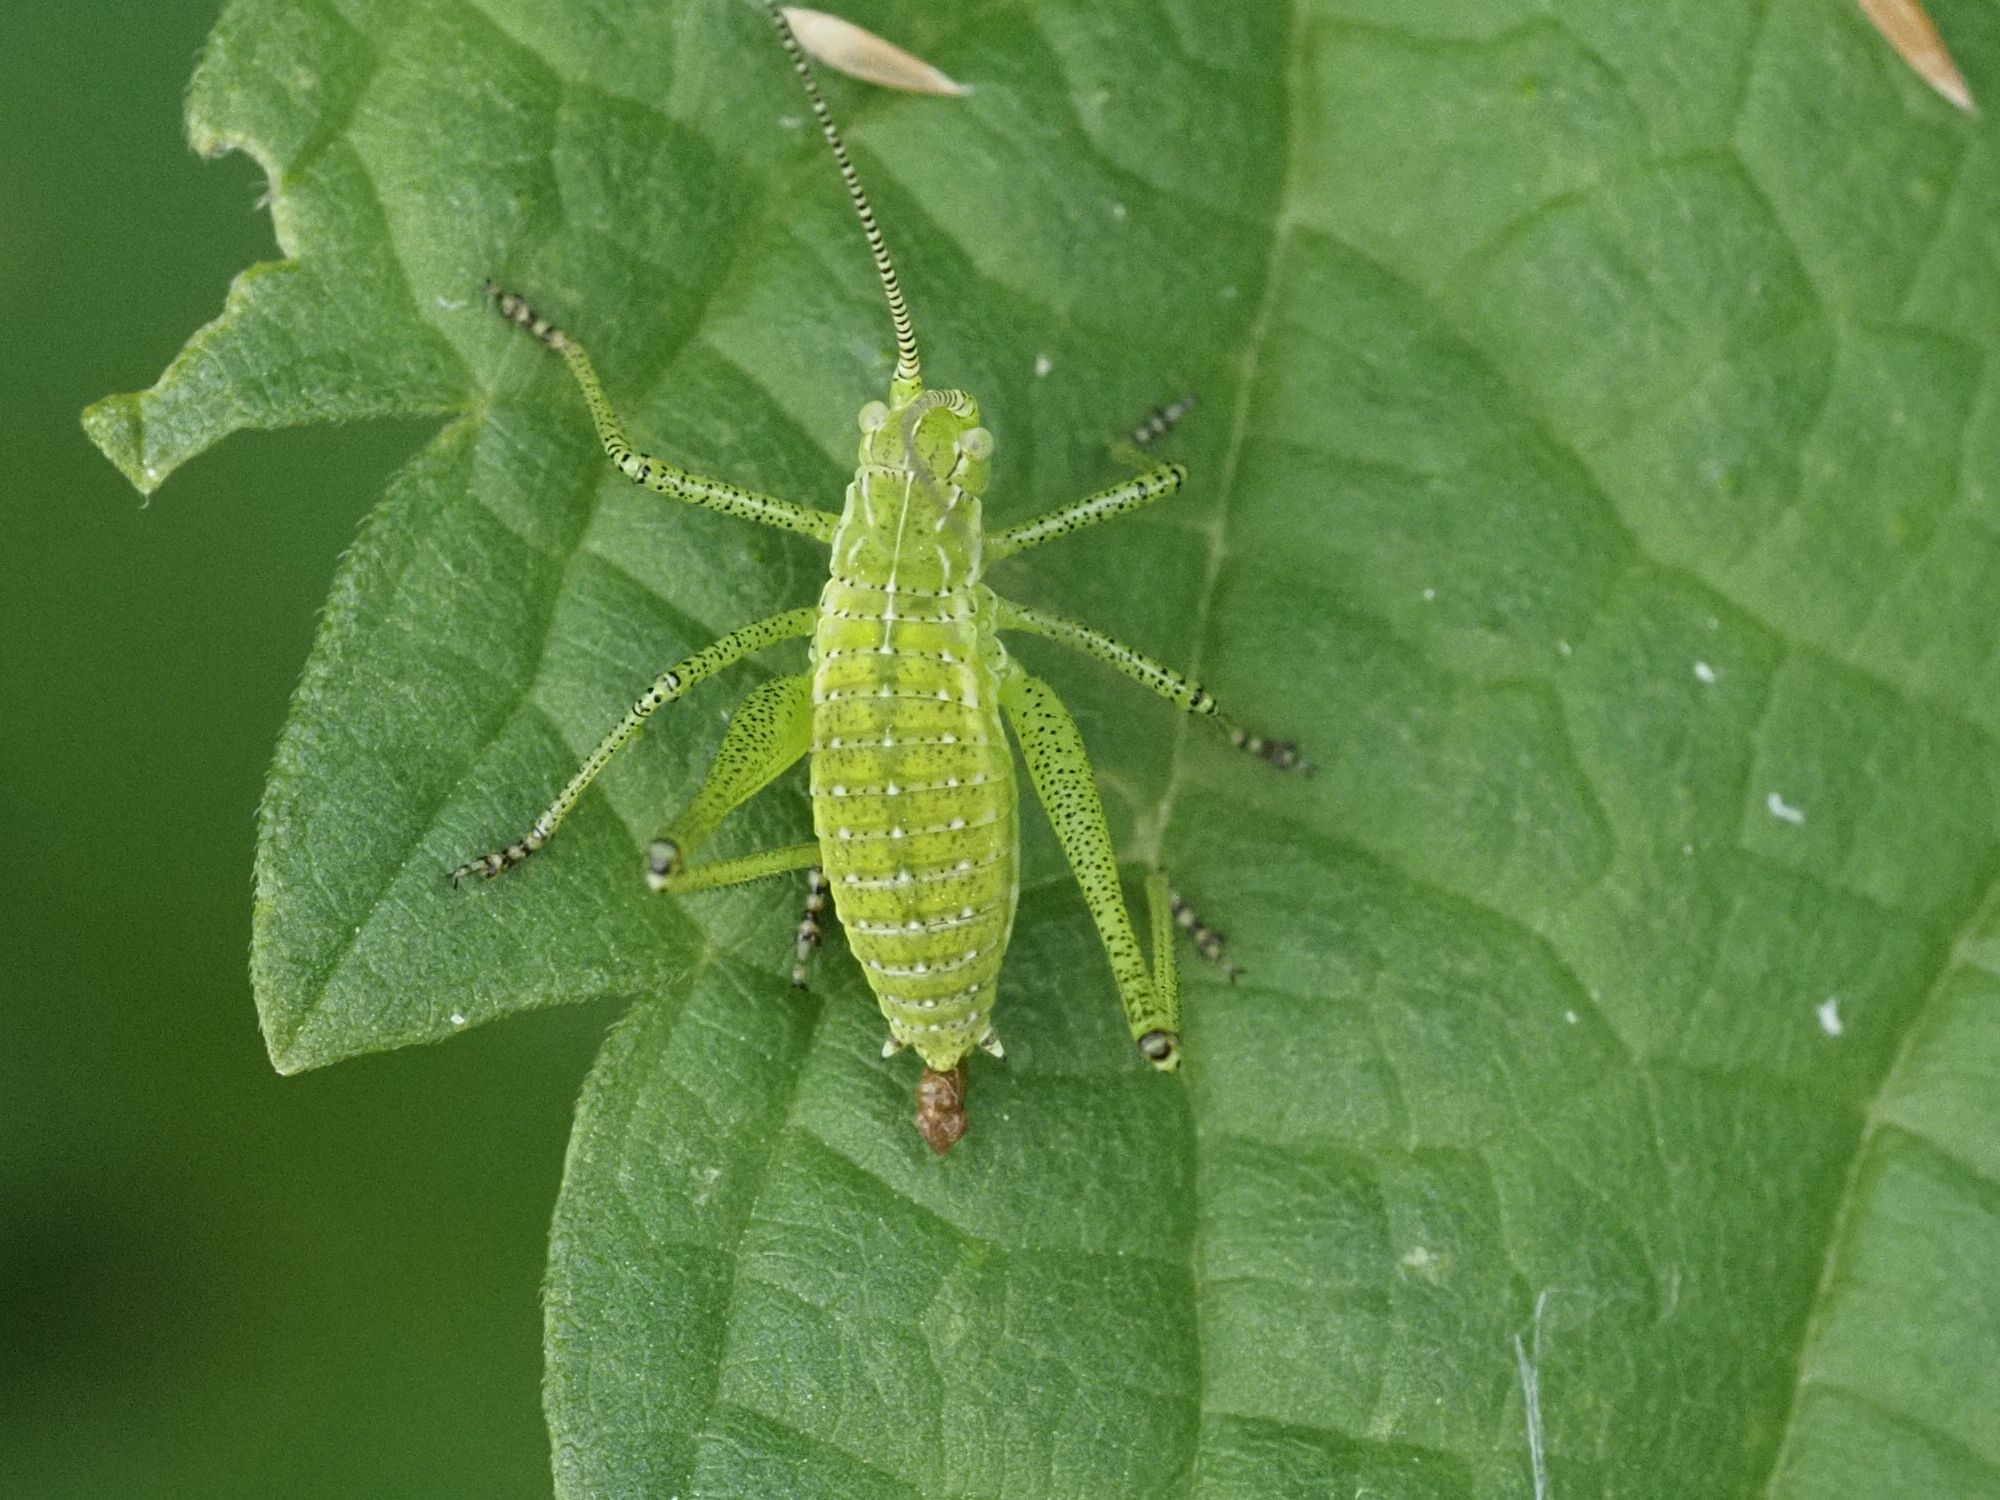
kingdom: Animalia
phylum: Arthropoda
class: Insecta
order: Orthoptera
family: Tettigoniidae
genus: Leptophyes
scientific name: Leptophyes albovittata
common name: Striped bush-cricket
